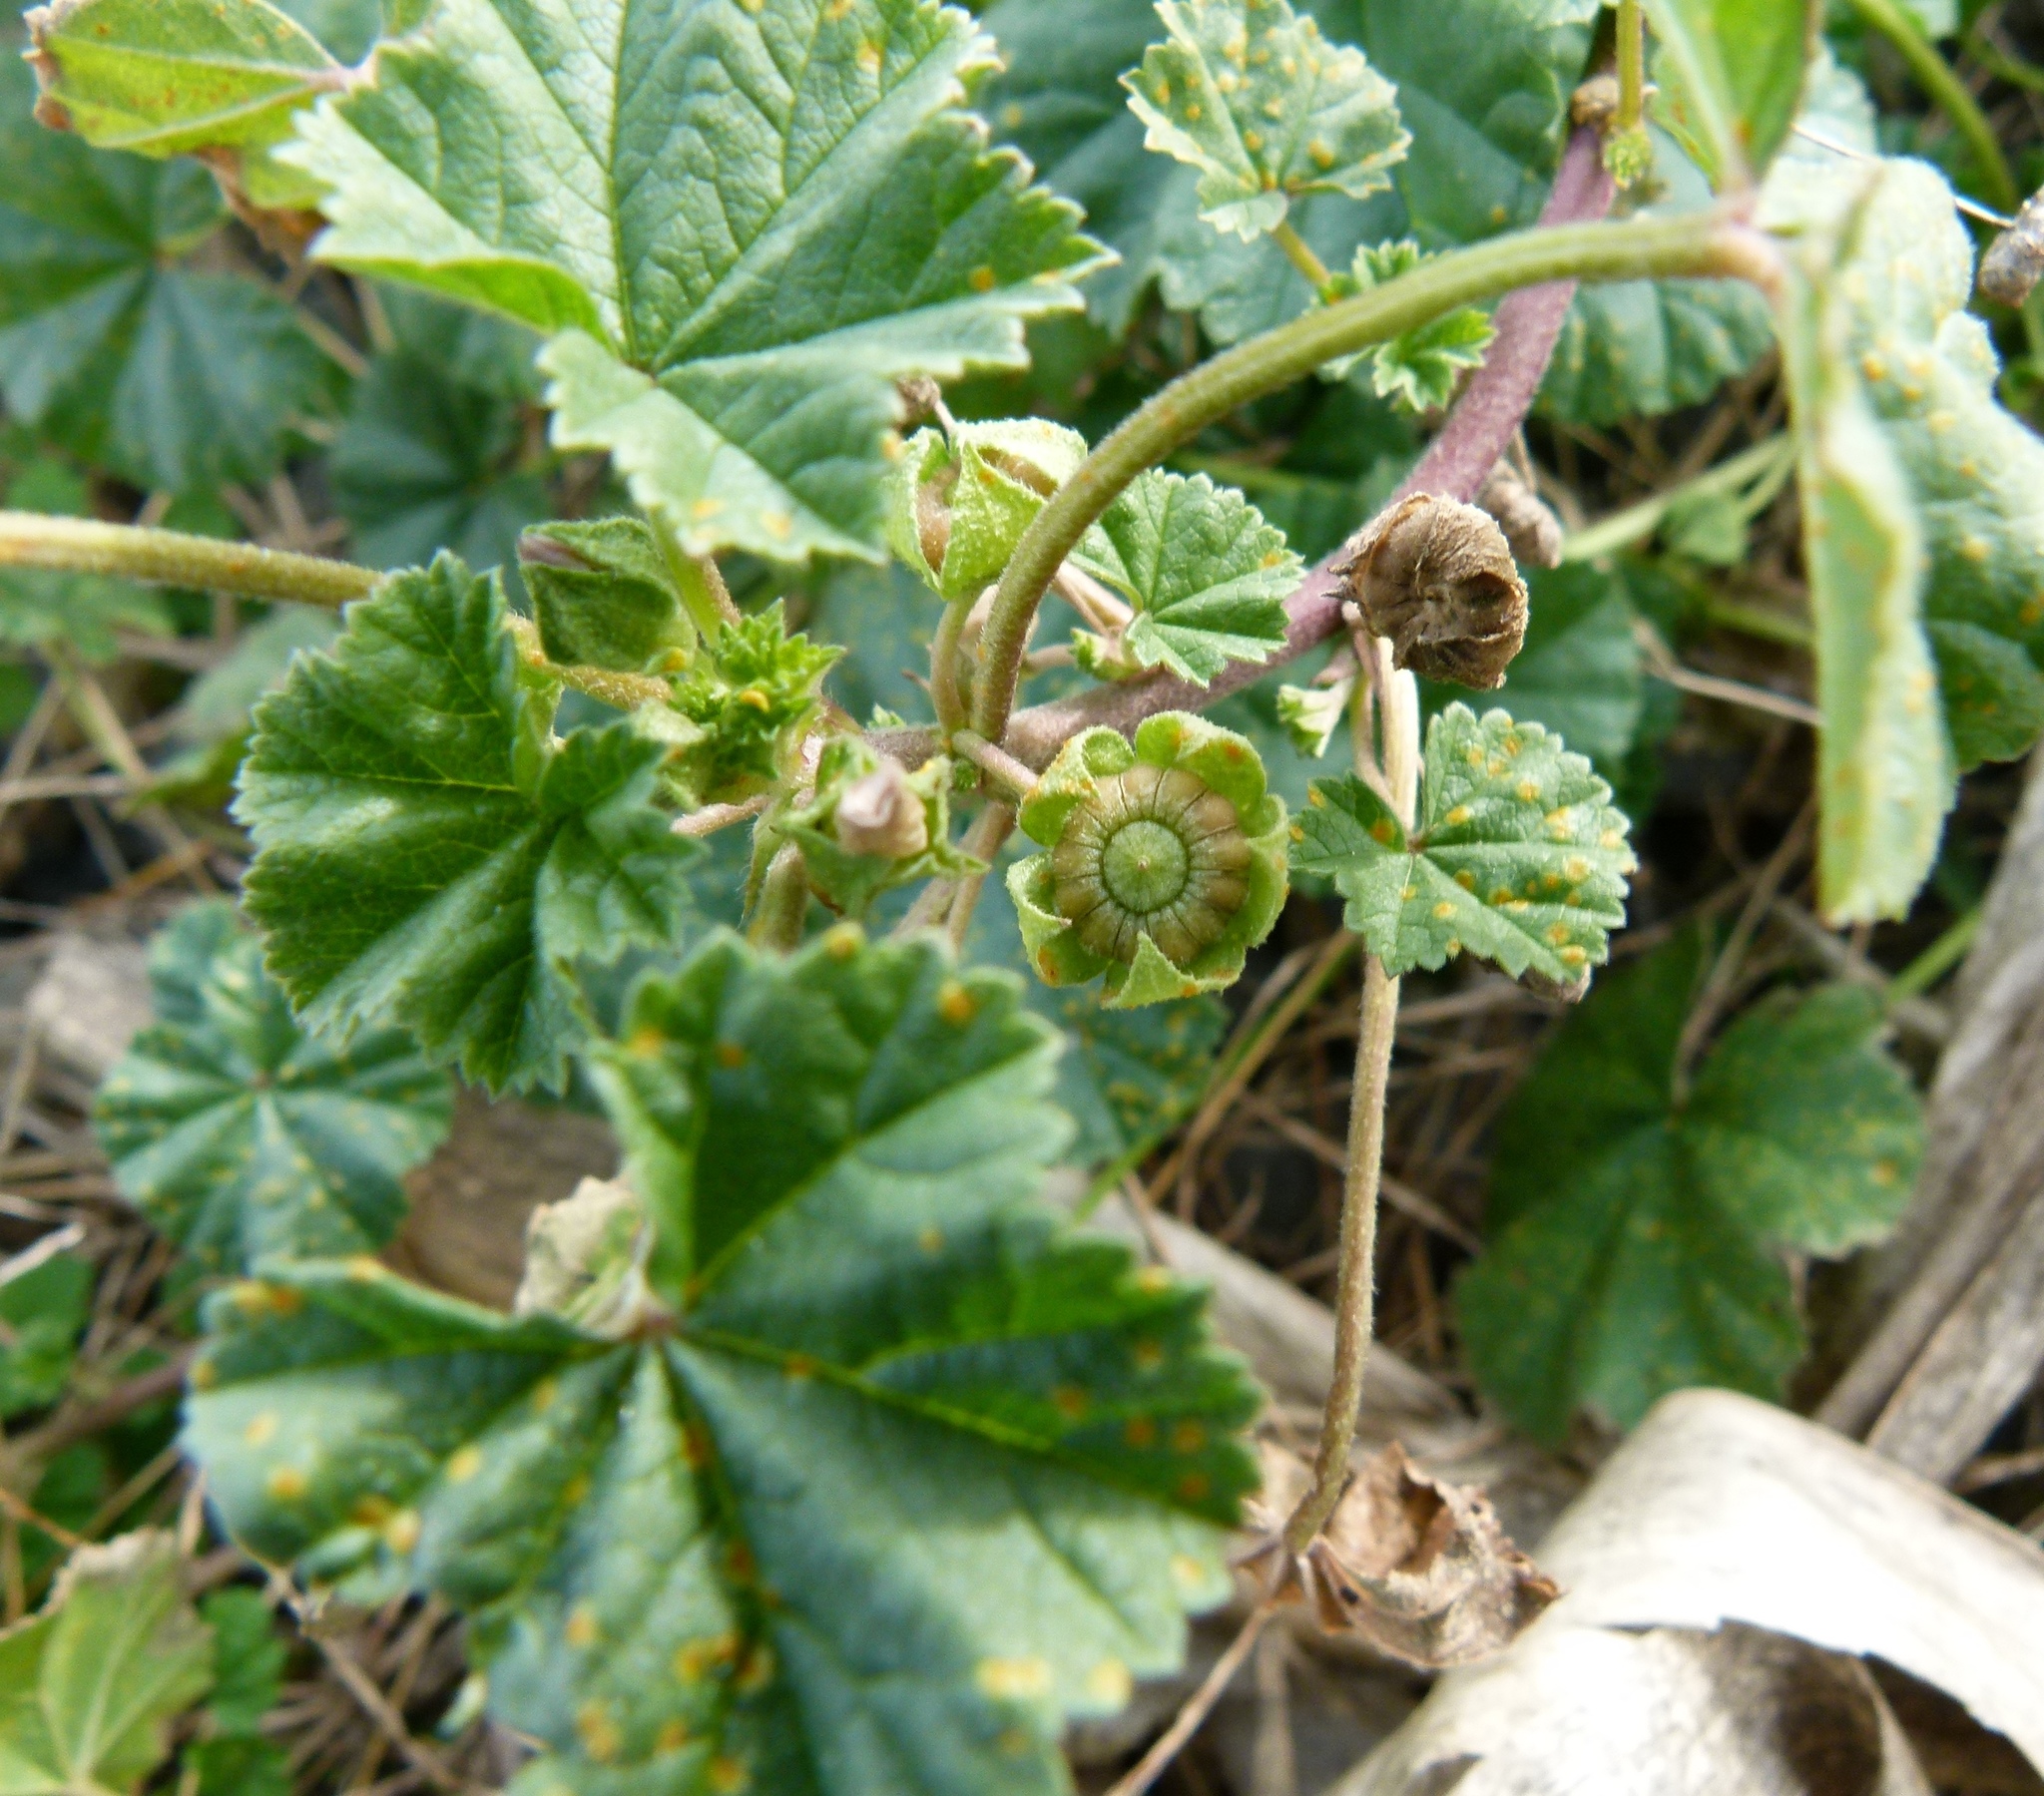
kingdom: Plantae
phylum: Tracheophyta
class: Magnoliopsida
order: Malvales
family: Malvaceae
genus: Malva
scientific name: Malva neglecta
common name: Common mallow
